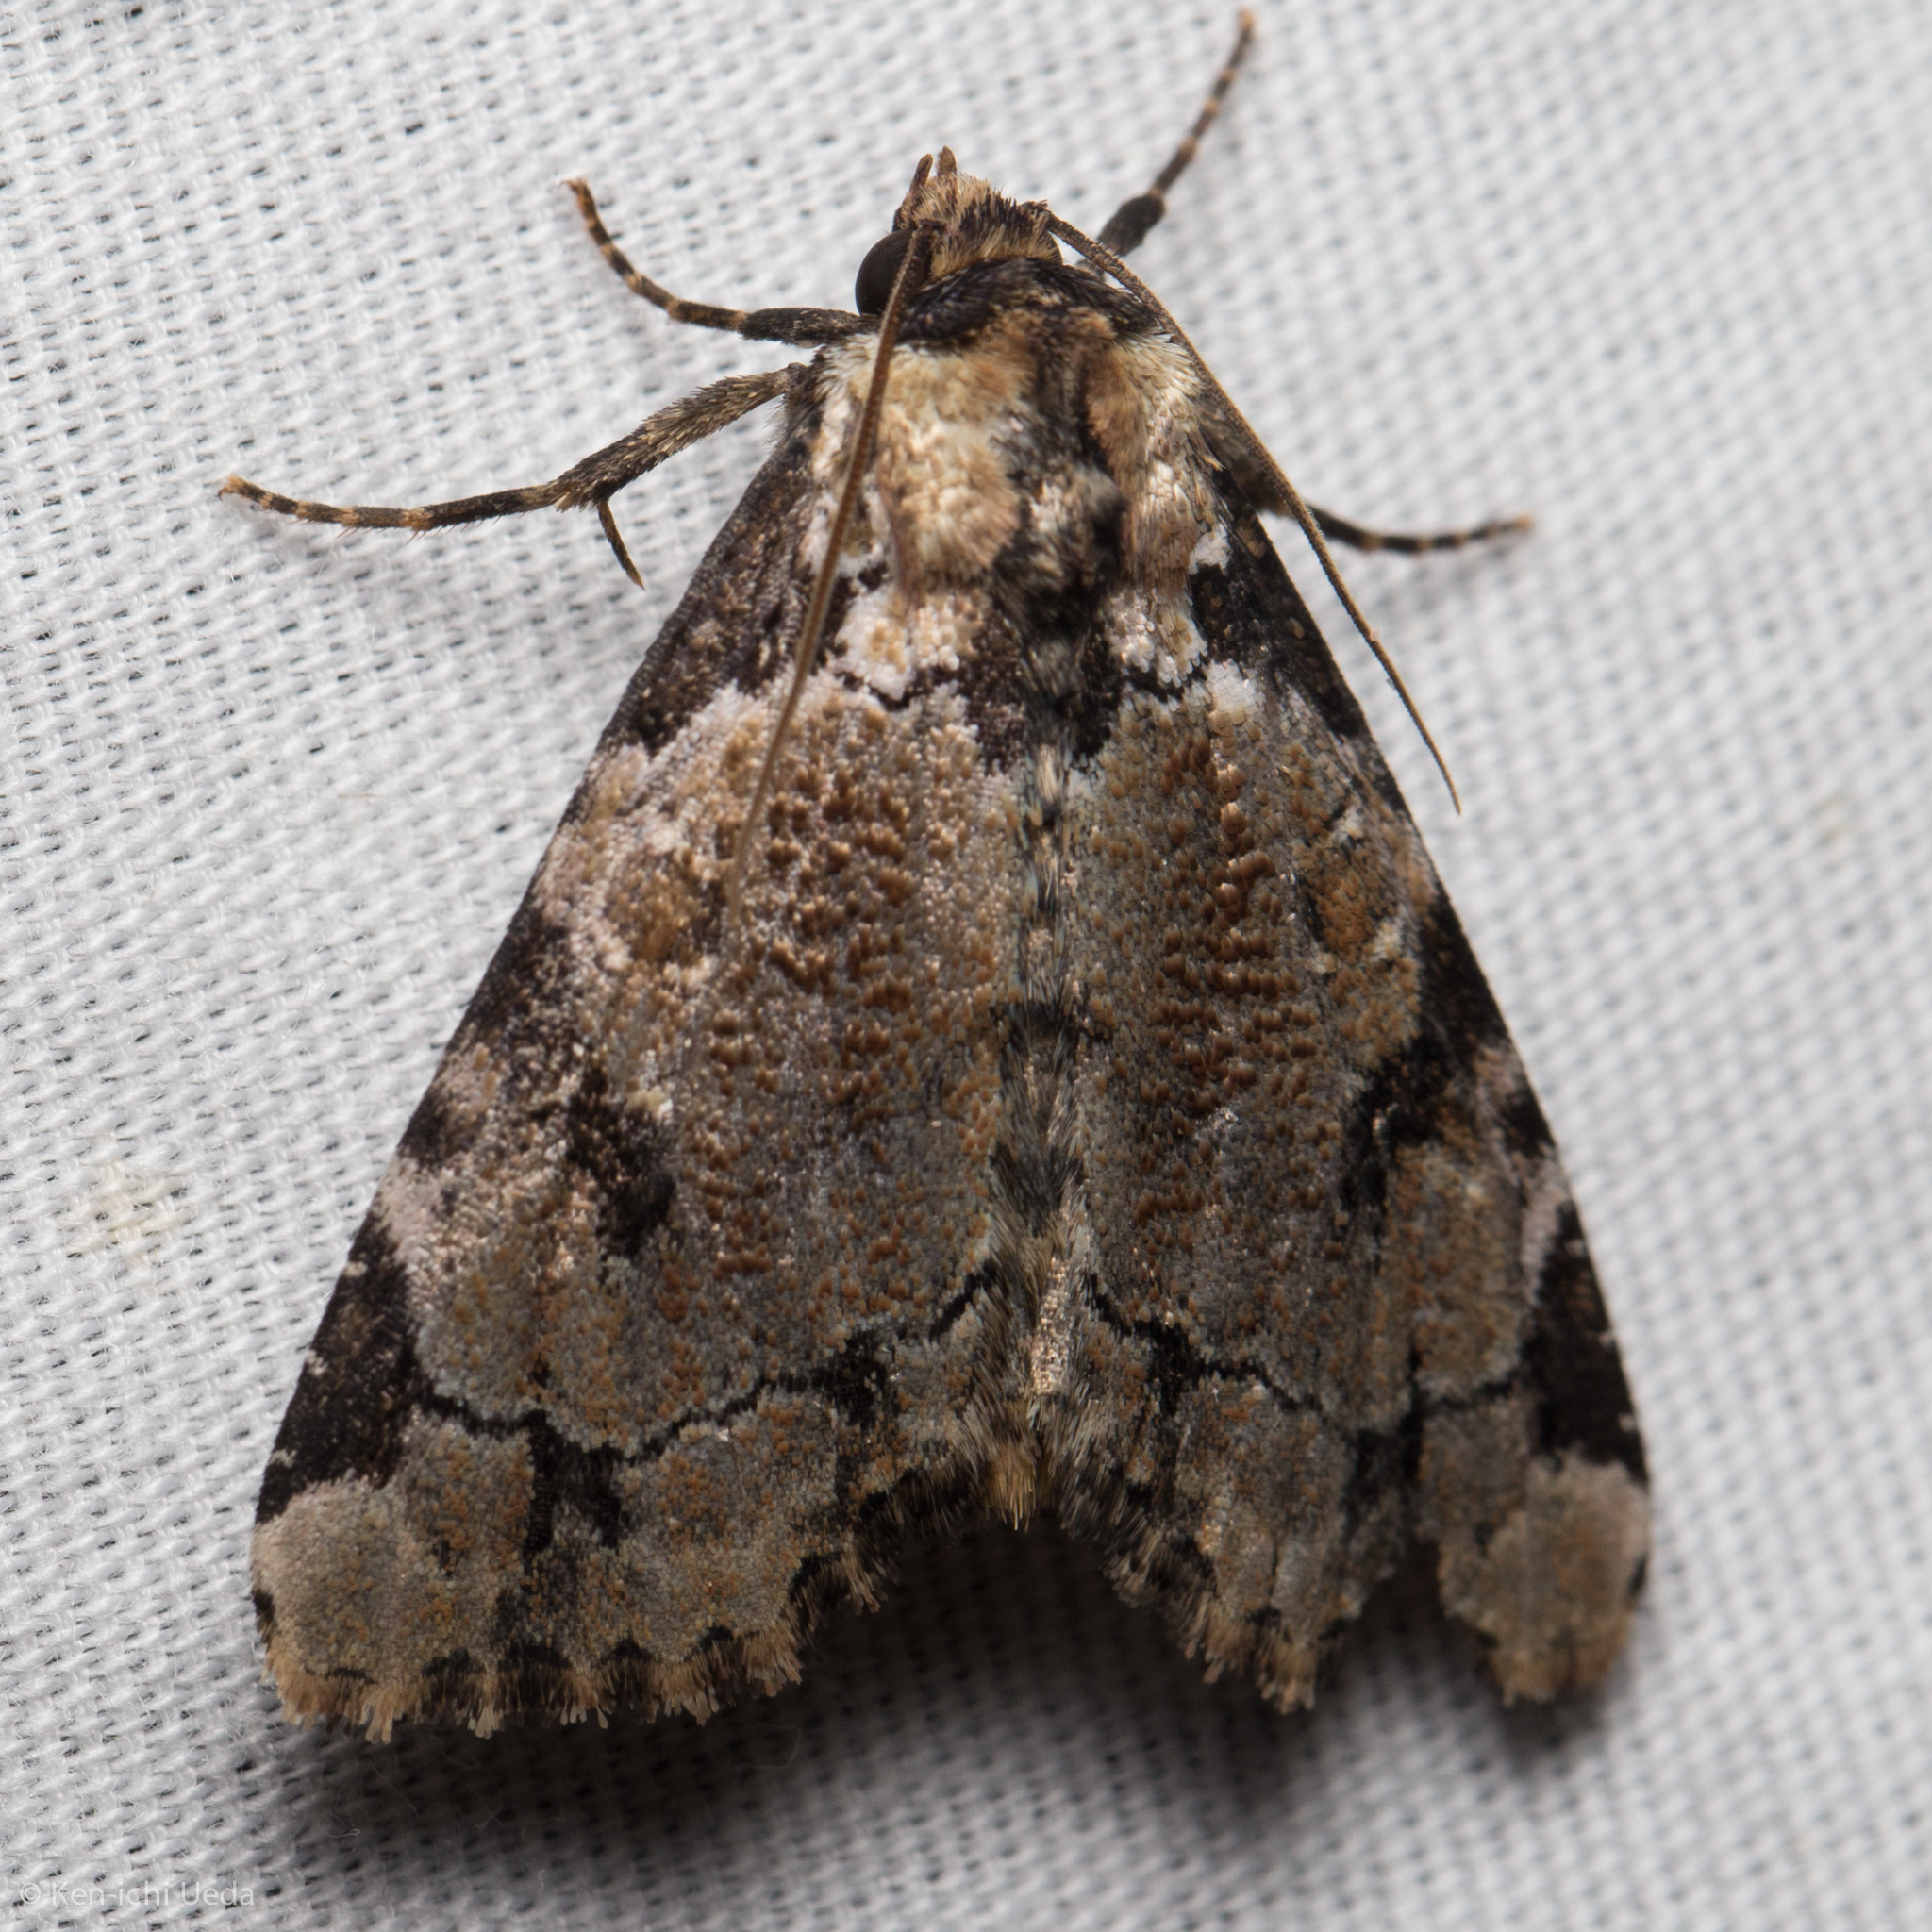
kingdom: Animalia
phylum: Arthropoda
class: Insecta
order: Lepidoptera
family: Noctuidae
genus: Stibaera
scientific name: Stibaera thyatiroides
